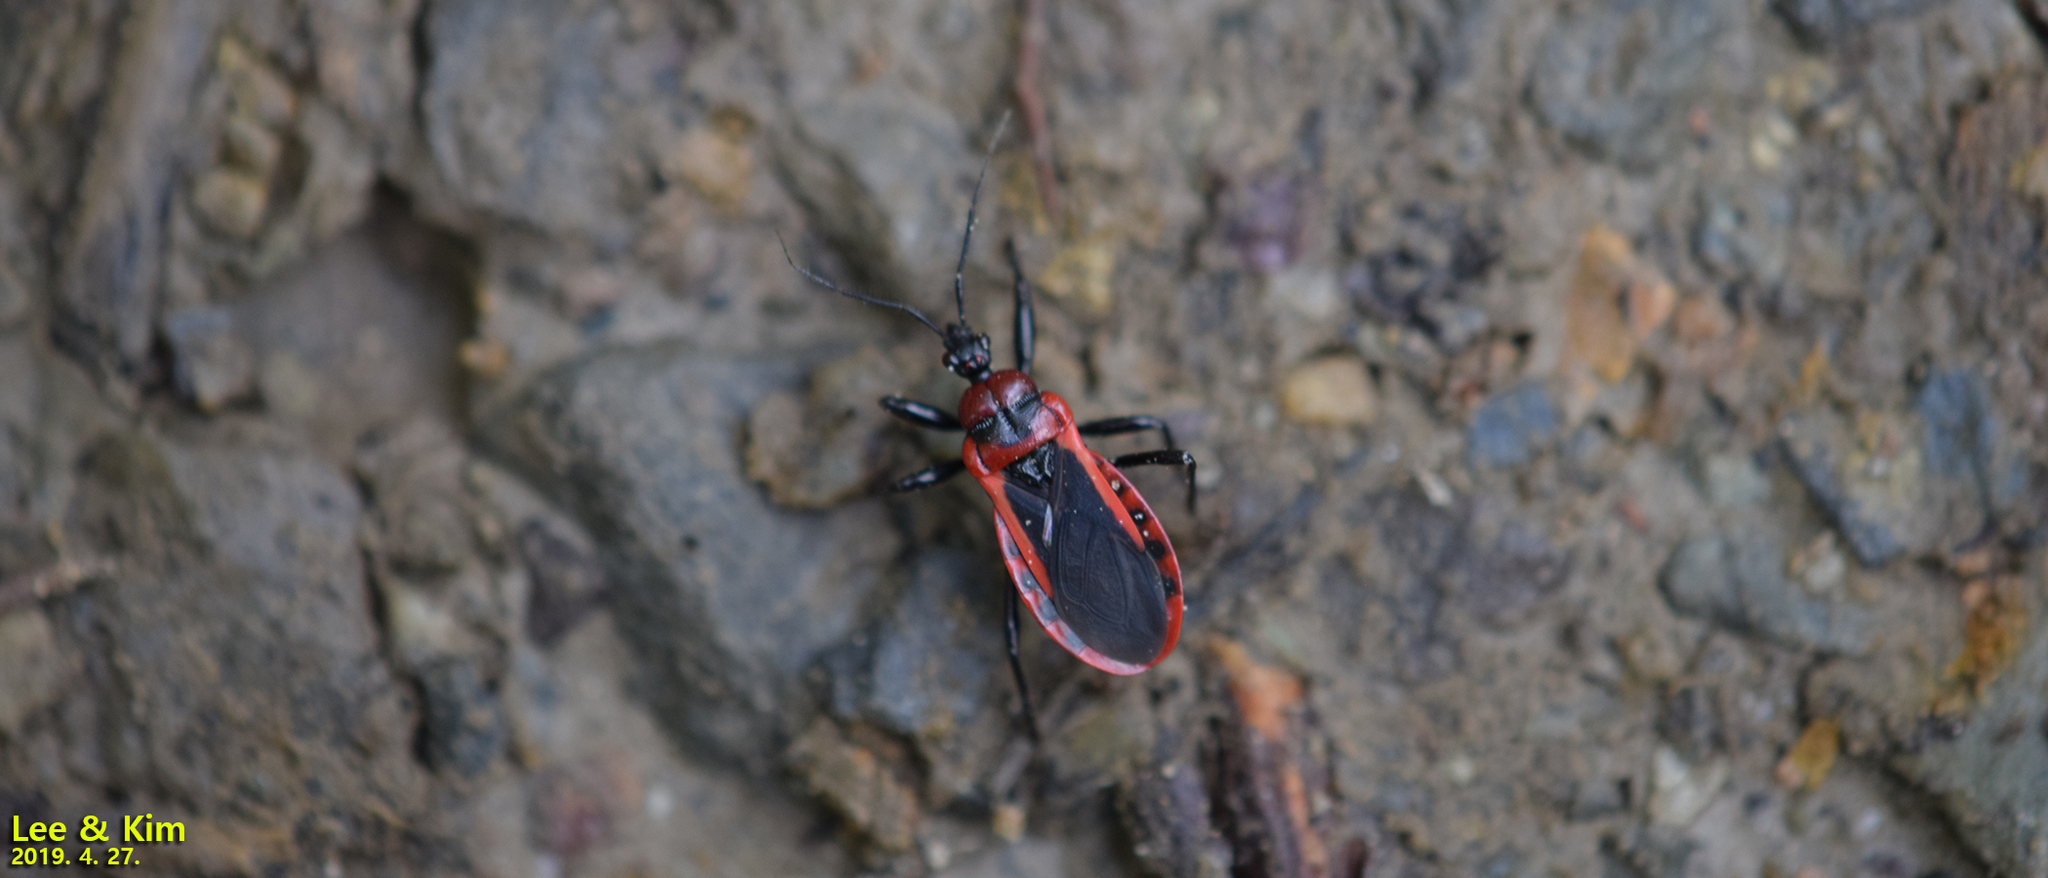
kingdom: Animalia
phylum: Arthropoda
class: Insecta
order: Hemiptera
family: Reduviidae
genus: Haematoloecha
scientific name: Haematoloecha rufithorax
